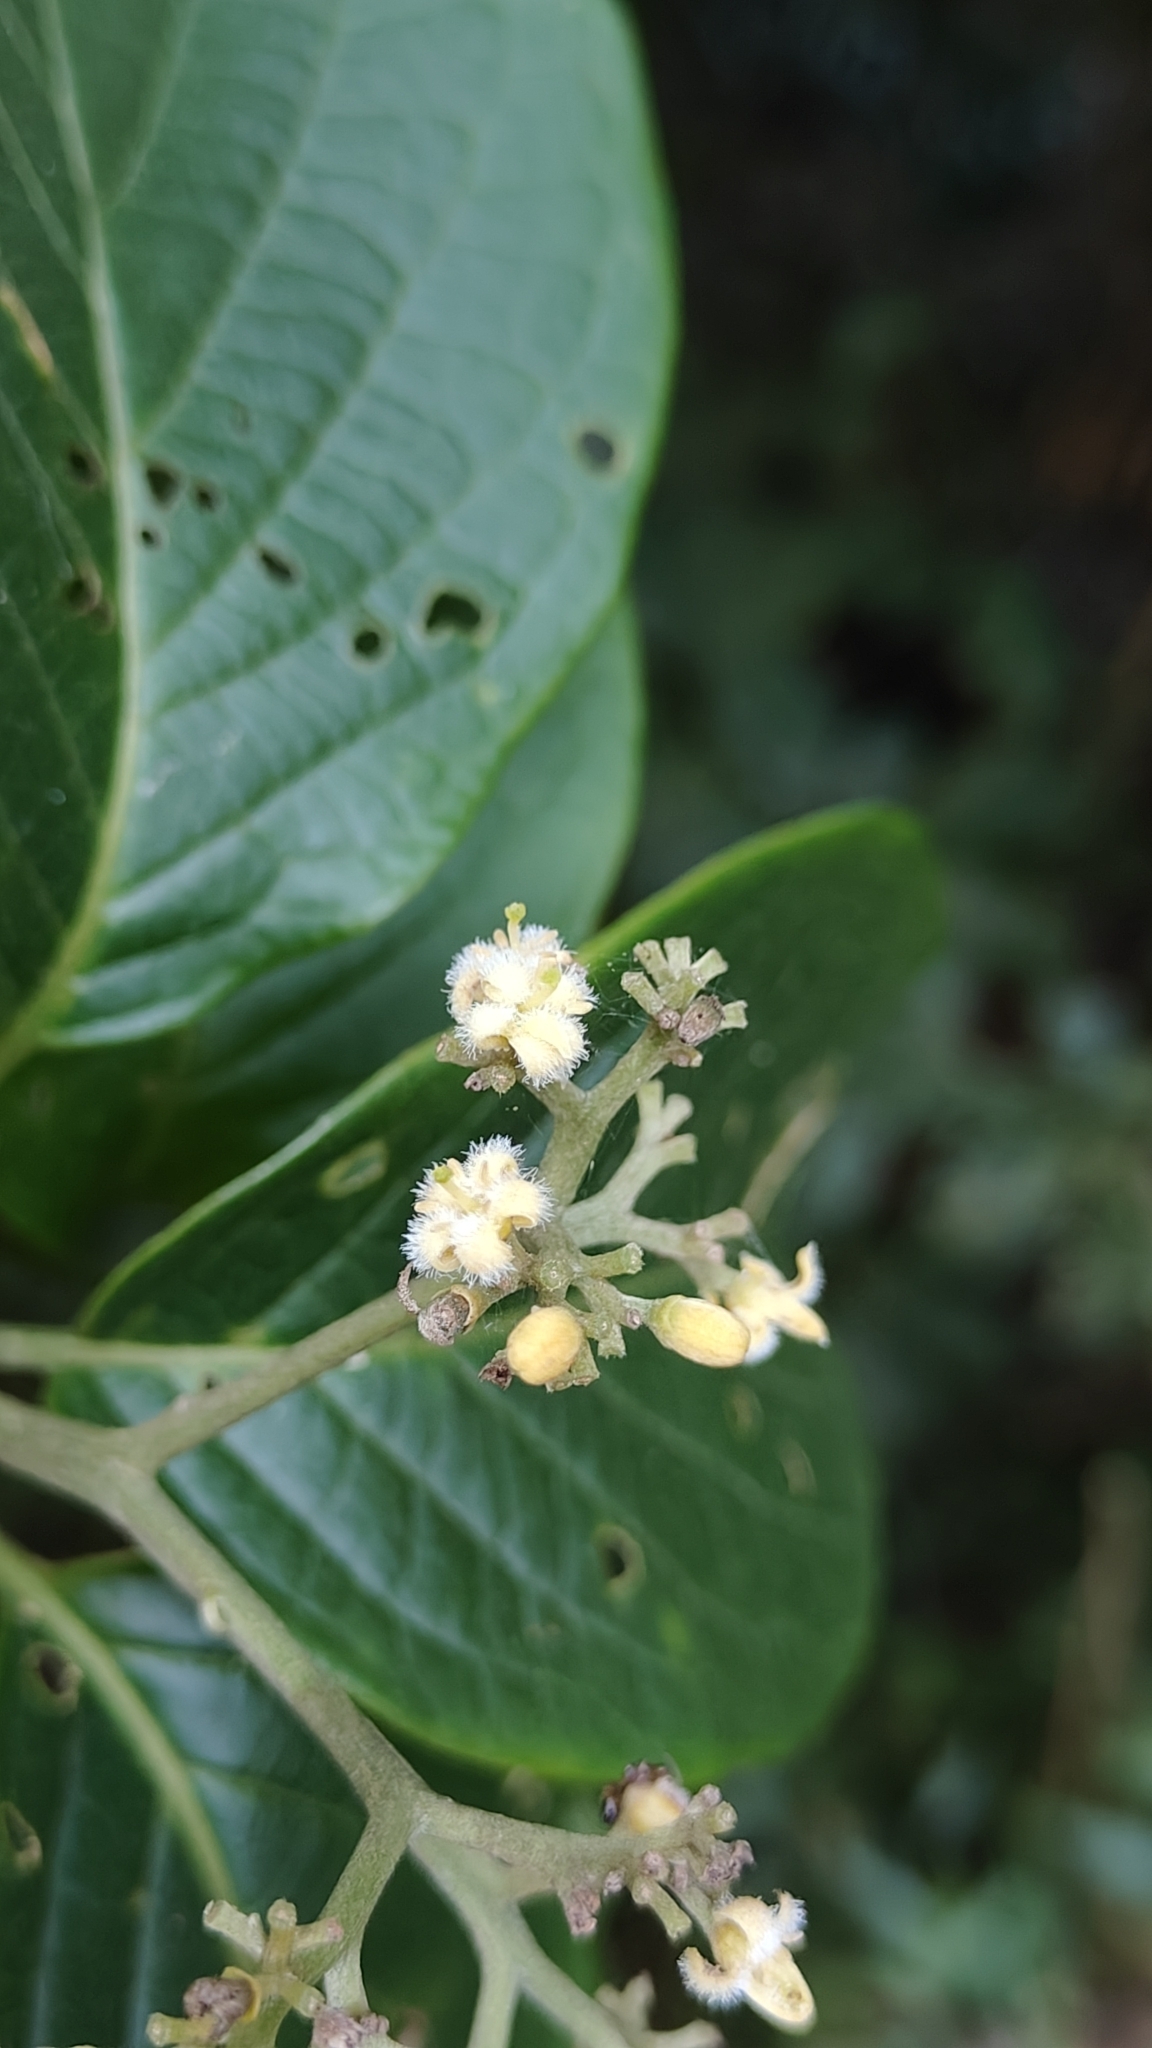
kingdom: Plantae
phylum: Tracheophyta
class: Magnoliopsida
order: Icacinales
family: Icacinaceae
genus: Nothapodytes
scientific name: Nothapodytes nimmoniana
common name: Nothapodytes
